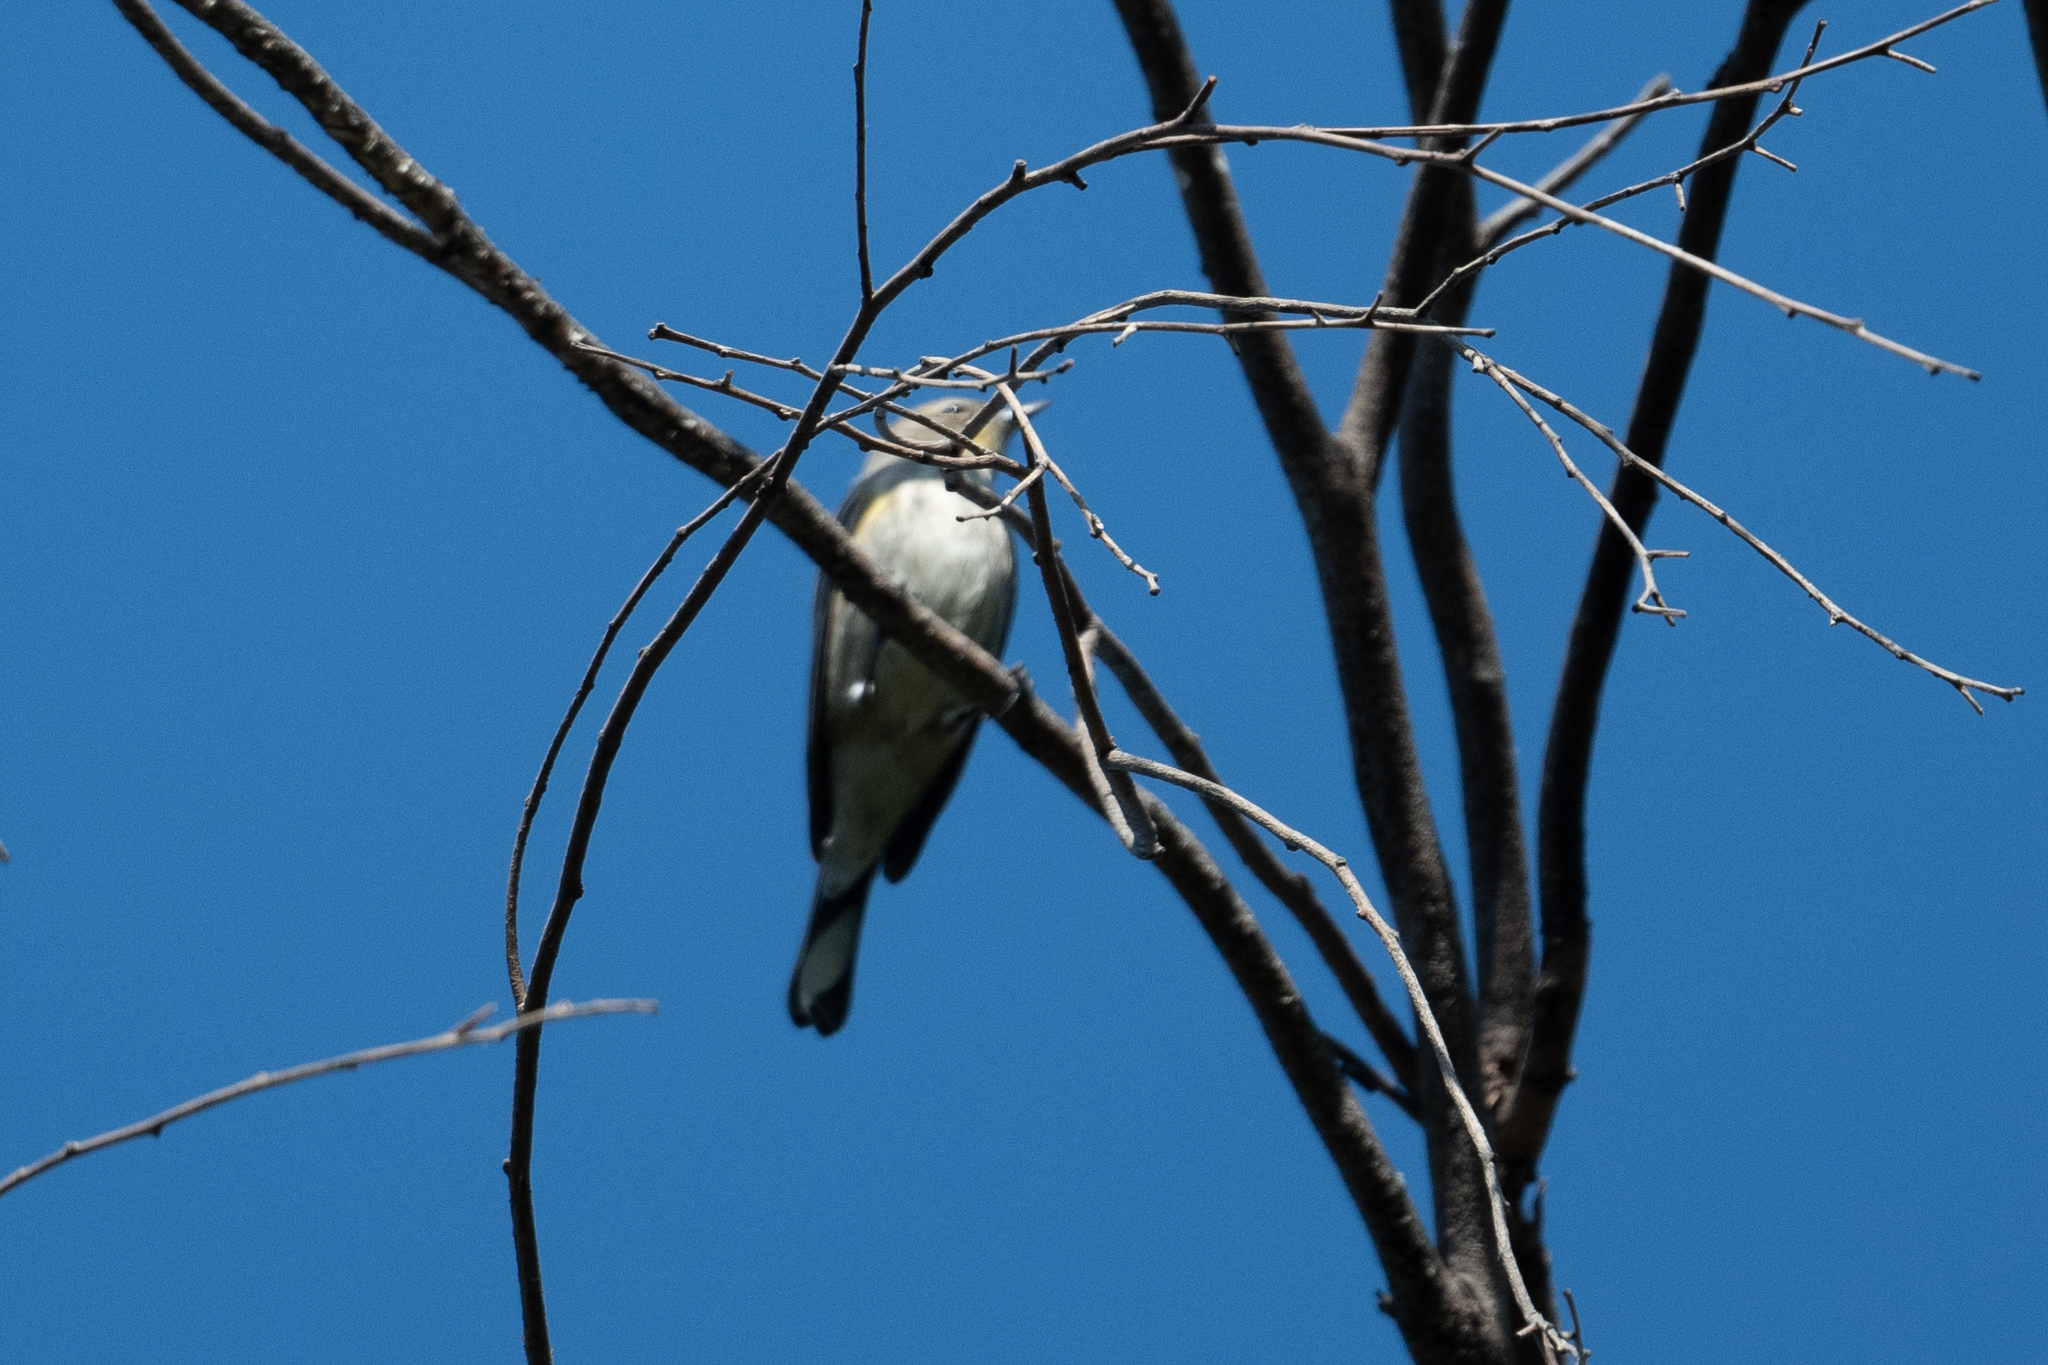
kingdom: Animalia
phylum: Chordata
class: Aves
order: Passeriformes
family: Parulidae
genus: Setophaga
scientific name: Setophaga coronata
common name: Myrtle warbler
